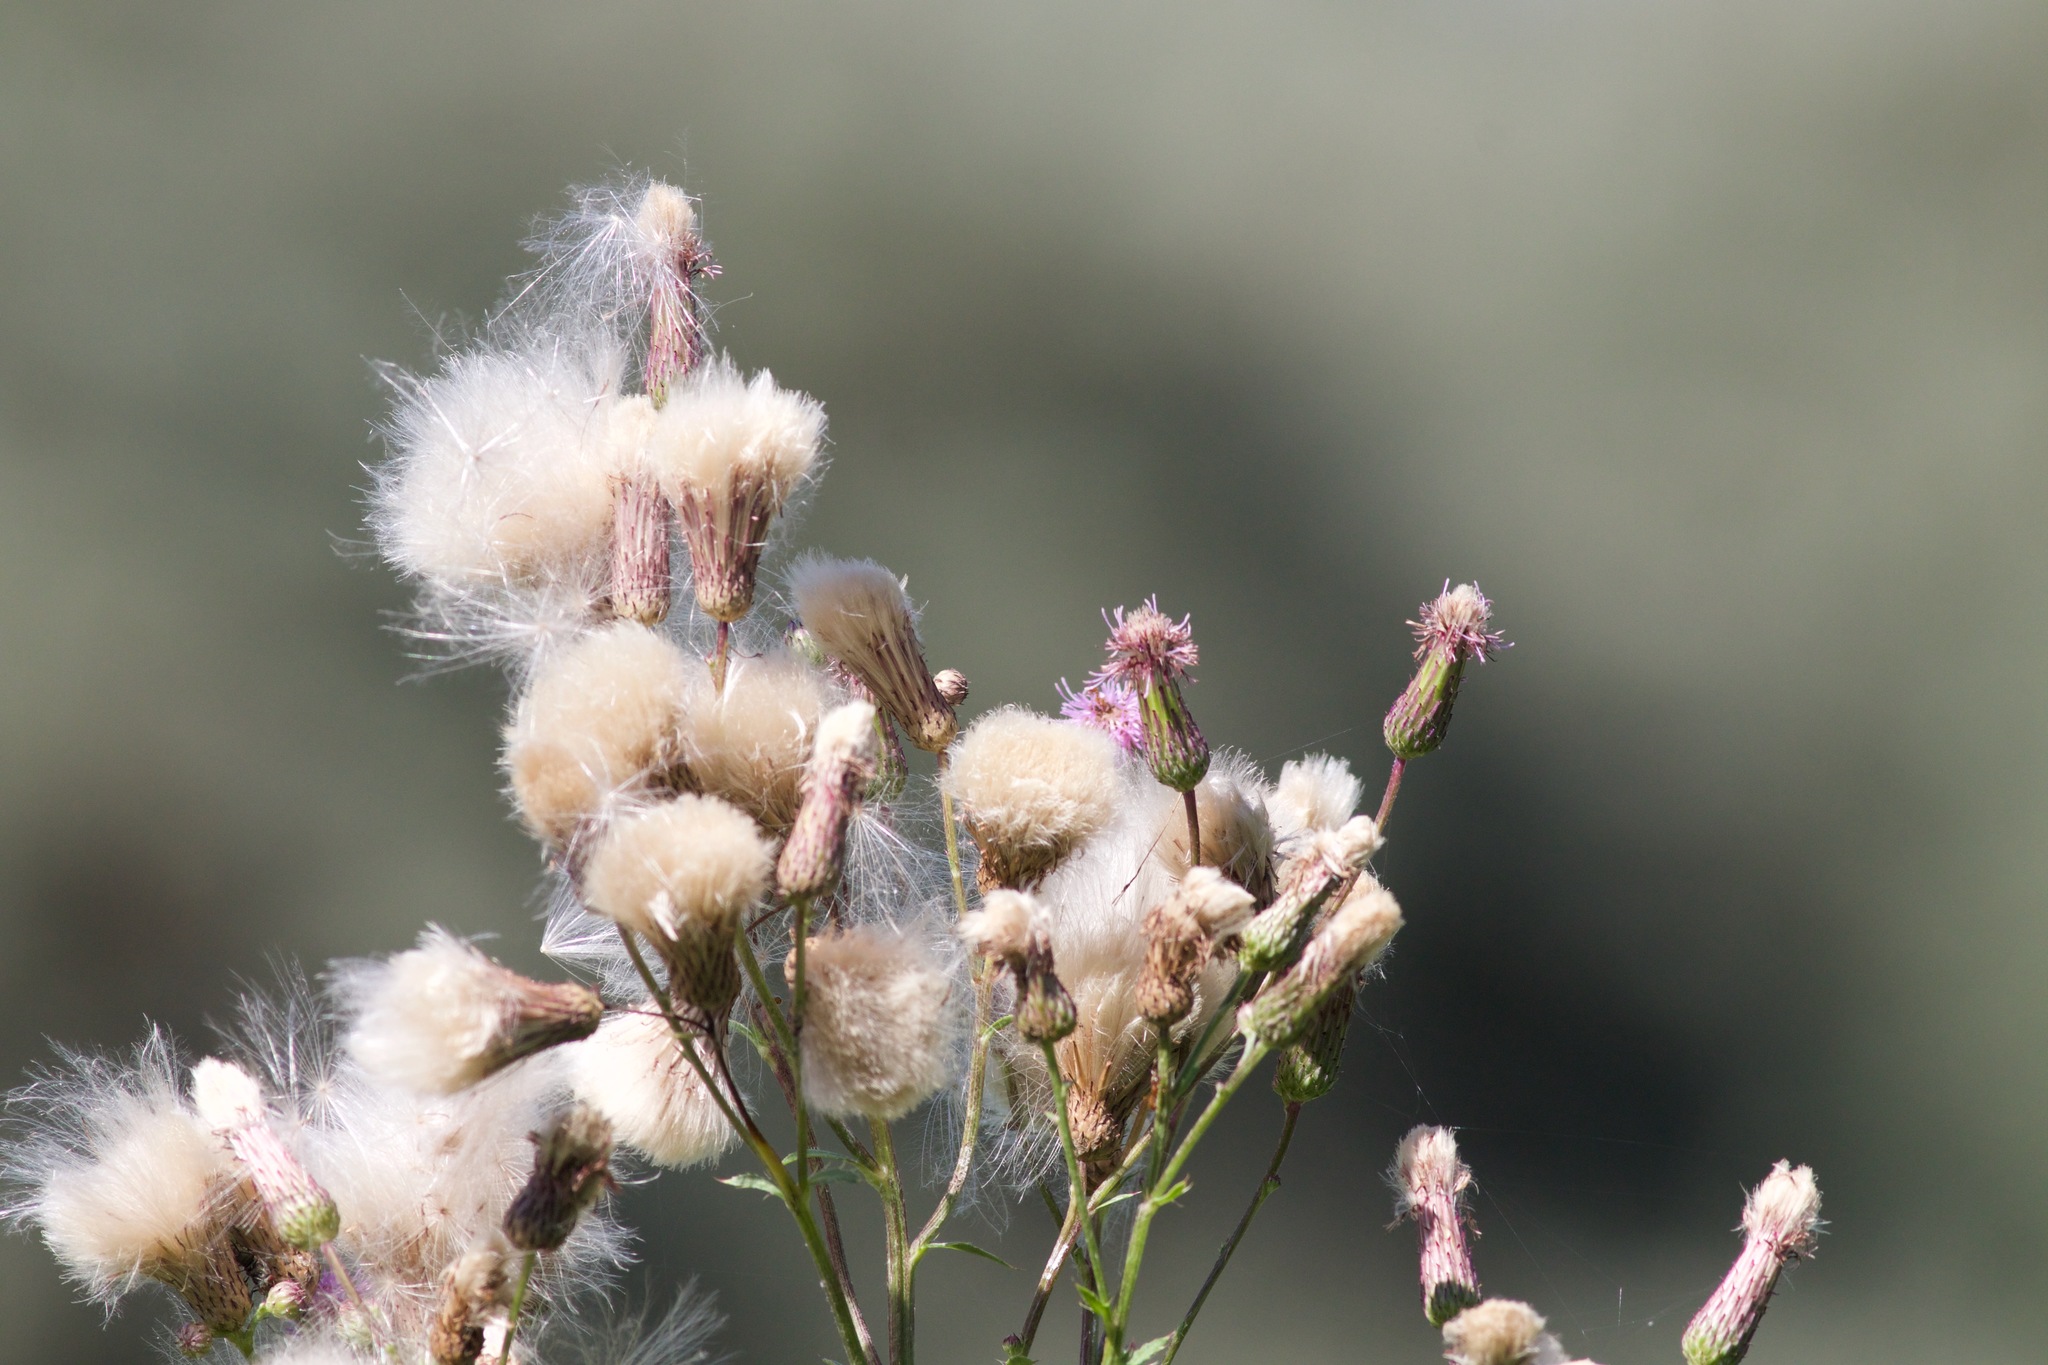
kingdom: Plantae
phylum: Tracheophyta
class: Magnoliopsida
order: Asterales
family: Asteraceae
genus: Cirsium
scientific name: Cirsium arvense
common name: Creeping thistle
